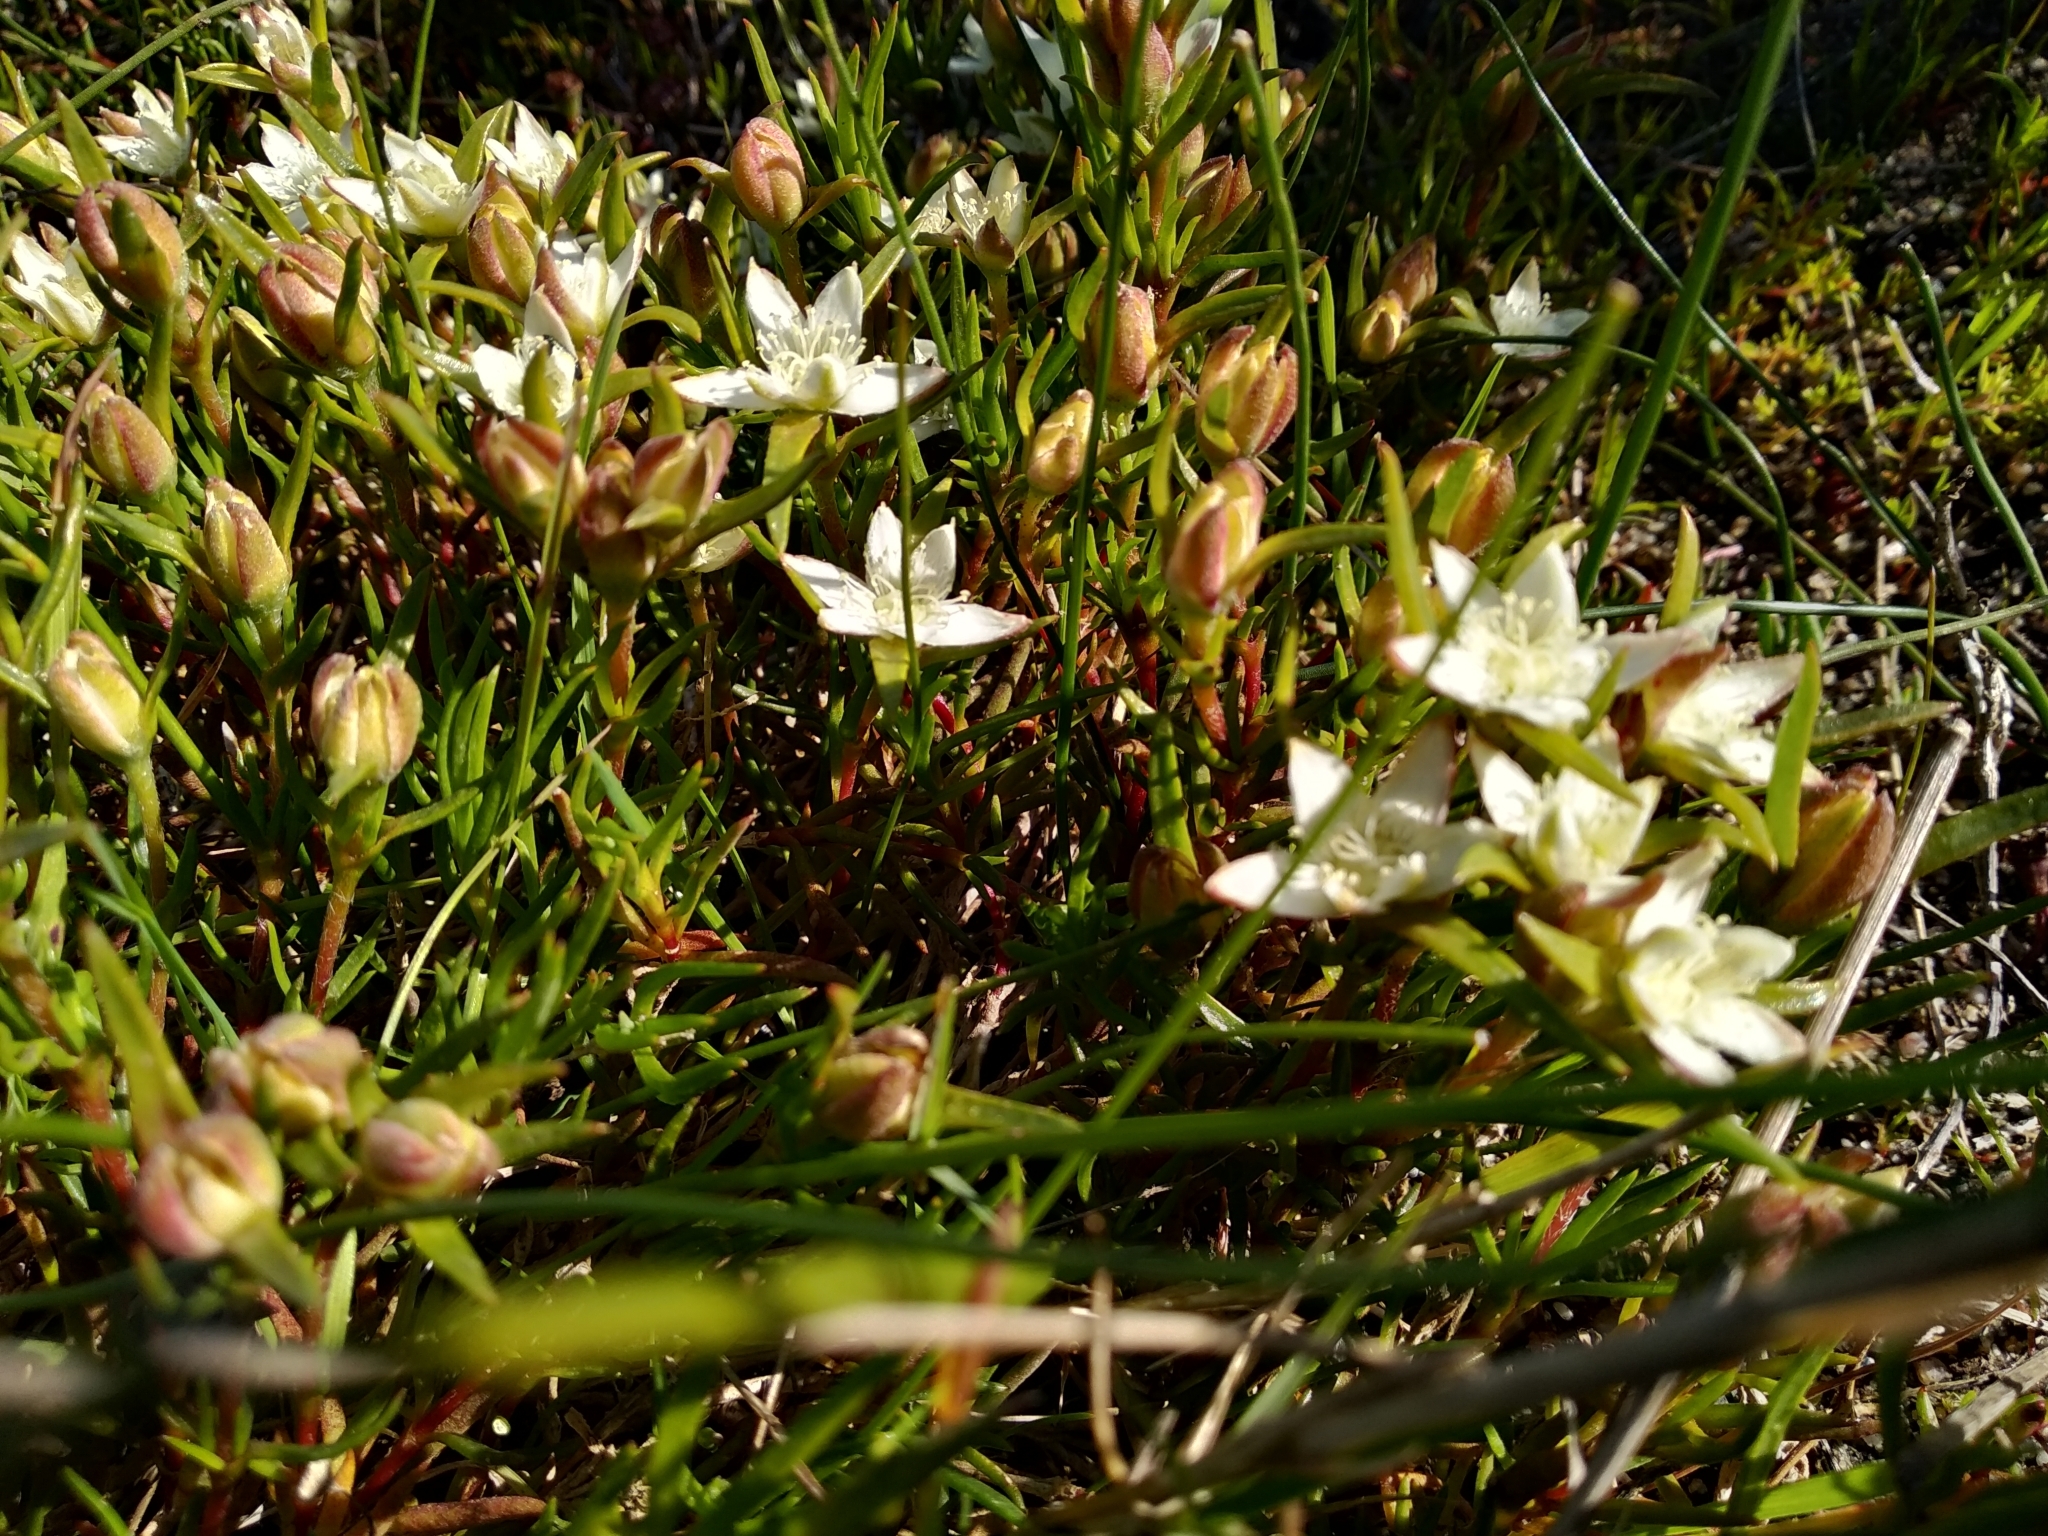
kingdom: Plantae
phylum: Tracheophyta
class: Magnoliopsida
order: Caryophyllales
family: Aizoaceae
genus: Aizoon
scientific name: Aizoon sarmentosum
